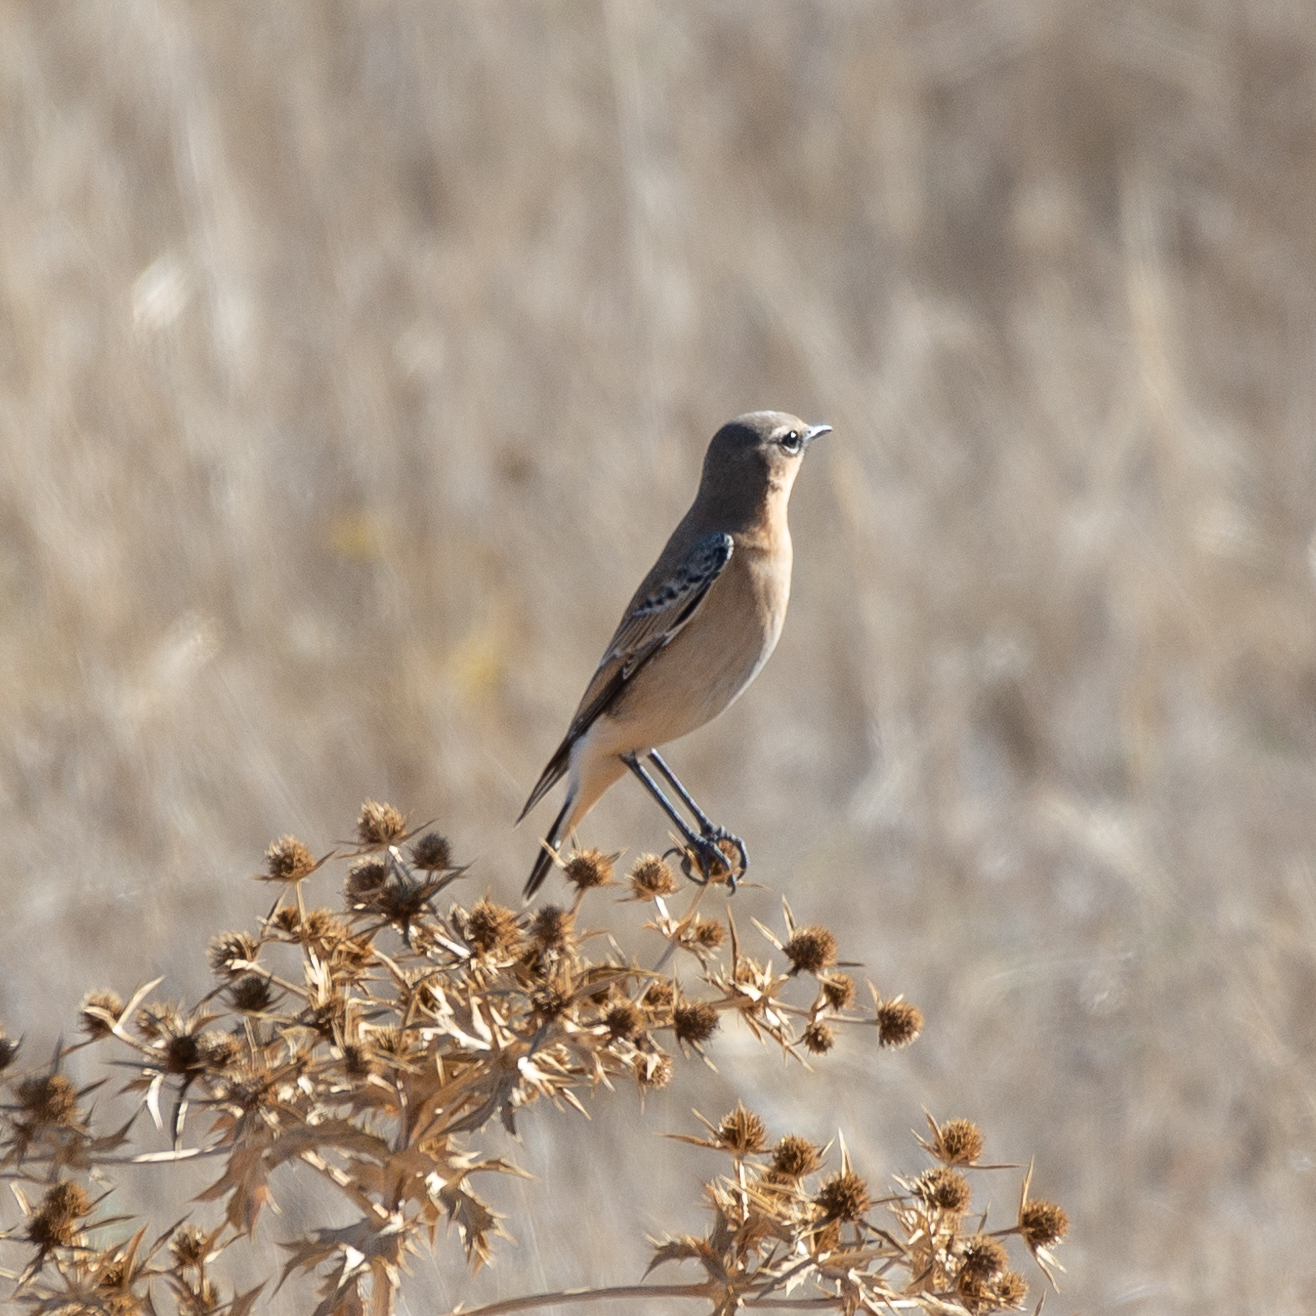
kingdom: Animalia
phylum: Chordata
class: Aves
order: Passeriformes
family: Muscicapidae
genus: Oenanthe
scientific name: Oenanthe oenanthe
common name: Northern wheatear
